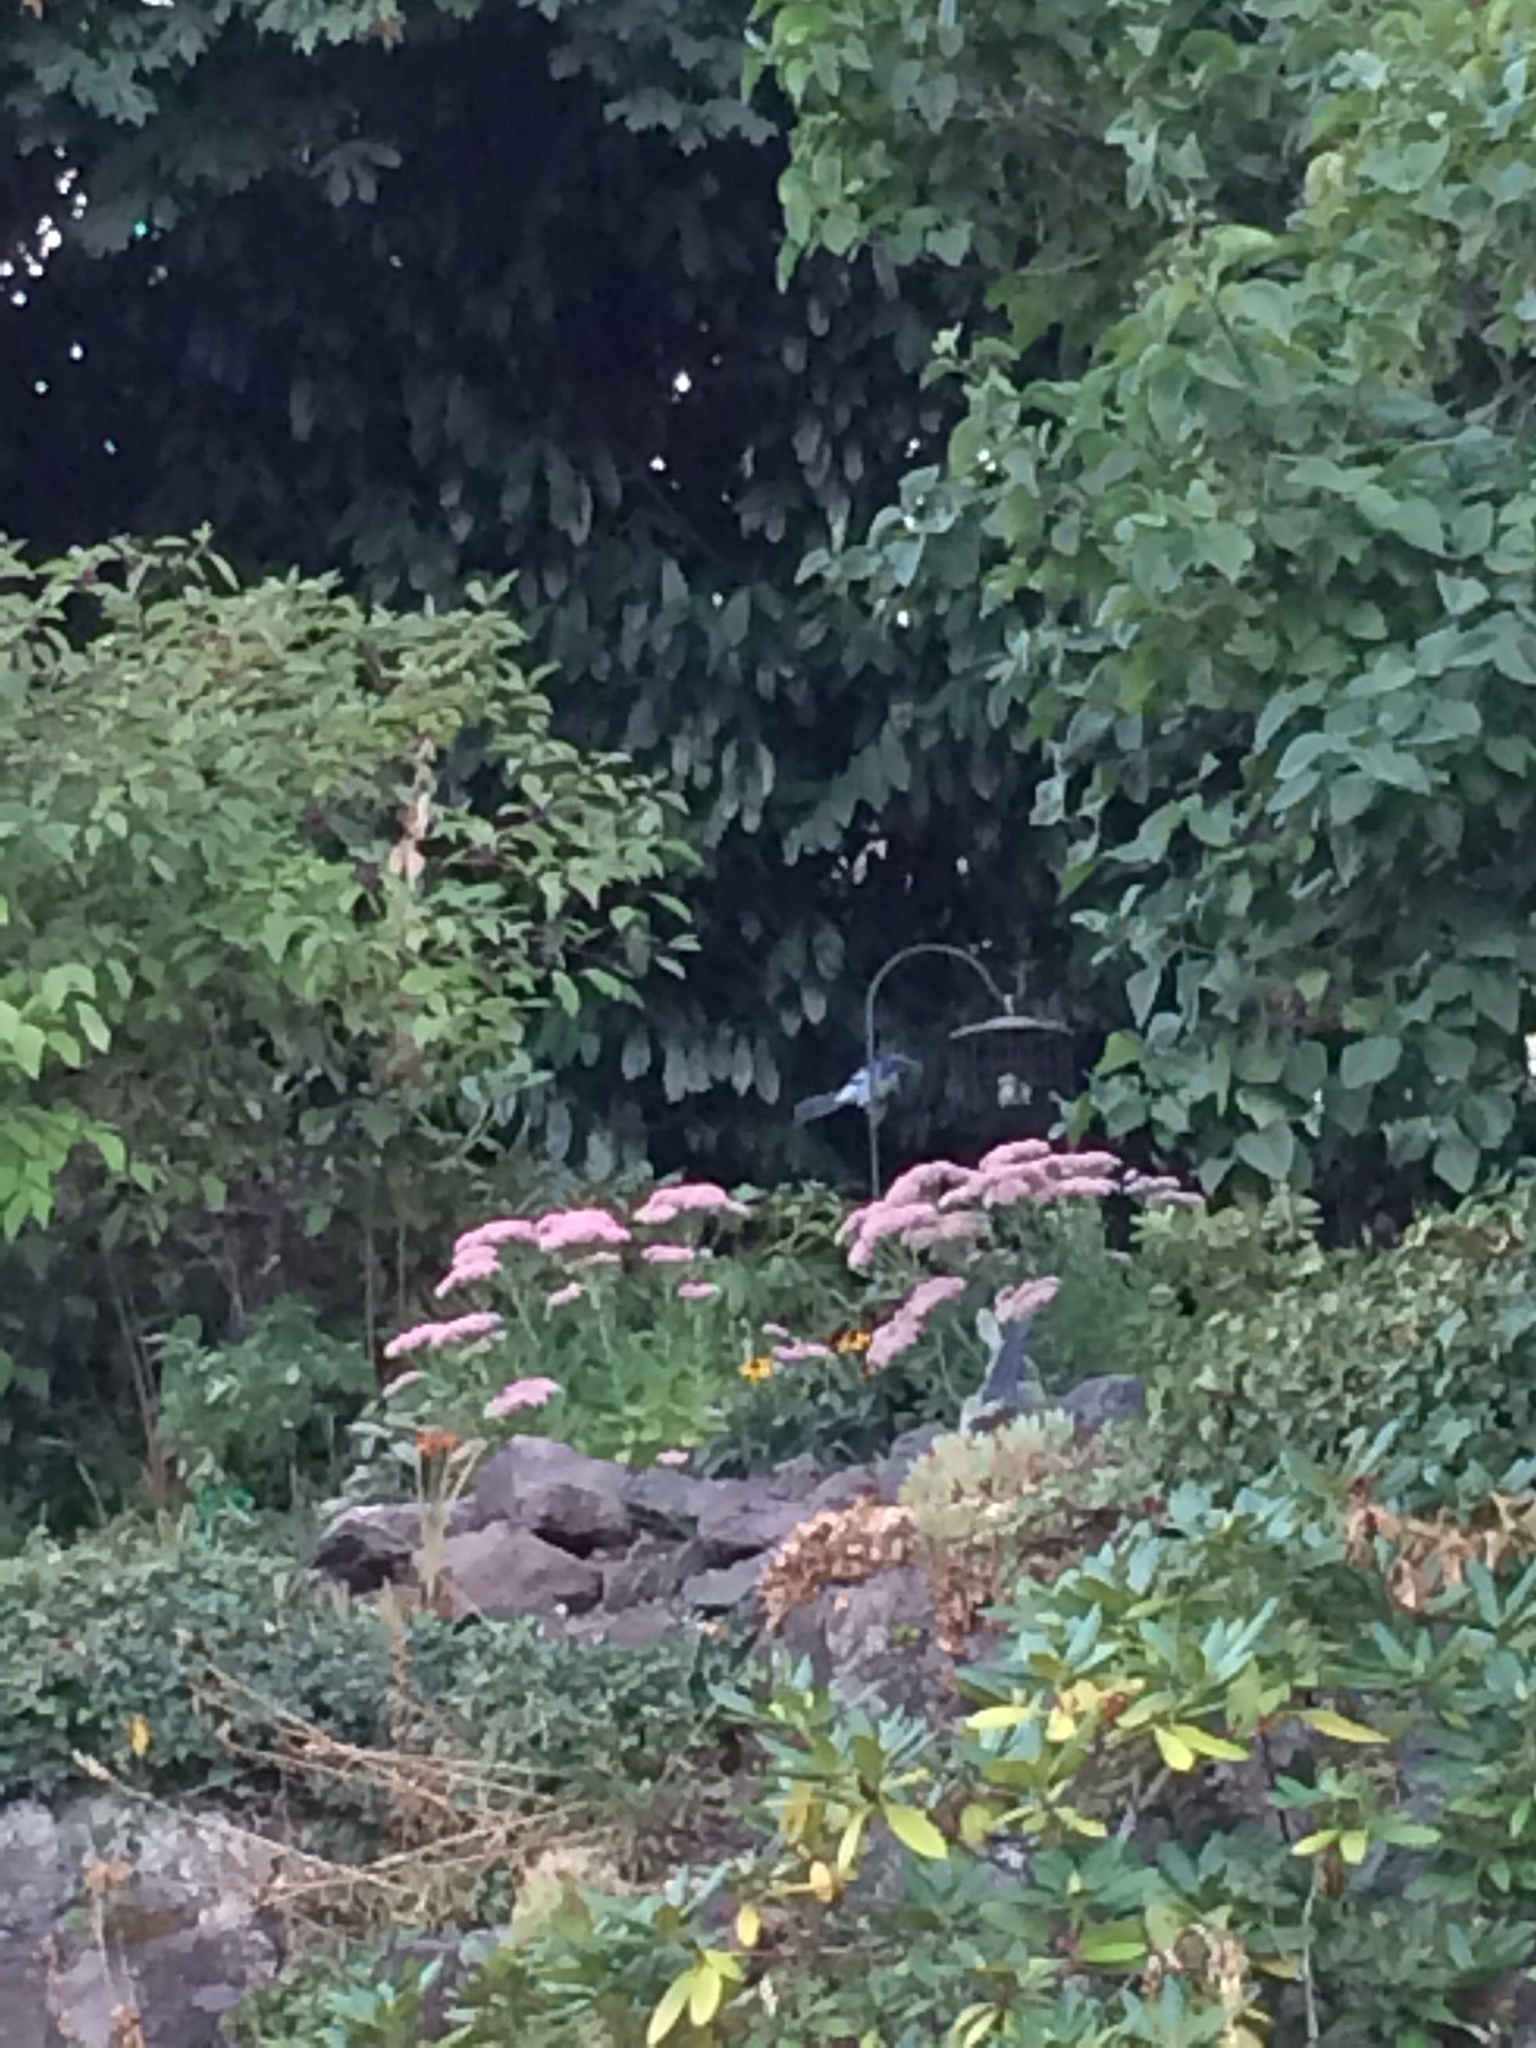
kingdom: Animalia
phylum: Chordata
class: Aves
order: Passeriformes
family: Corvidae
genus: Aphelocoma
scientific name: Aphelocoma californica
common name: California scrub-jay
